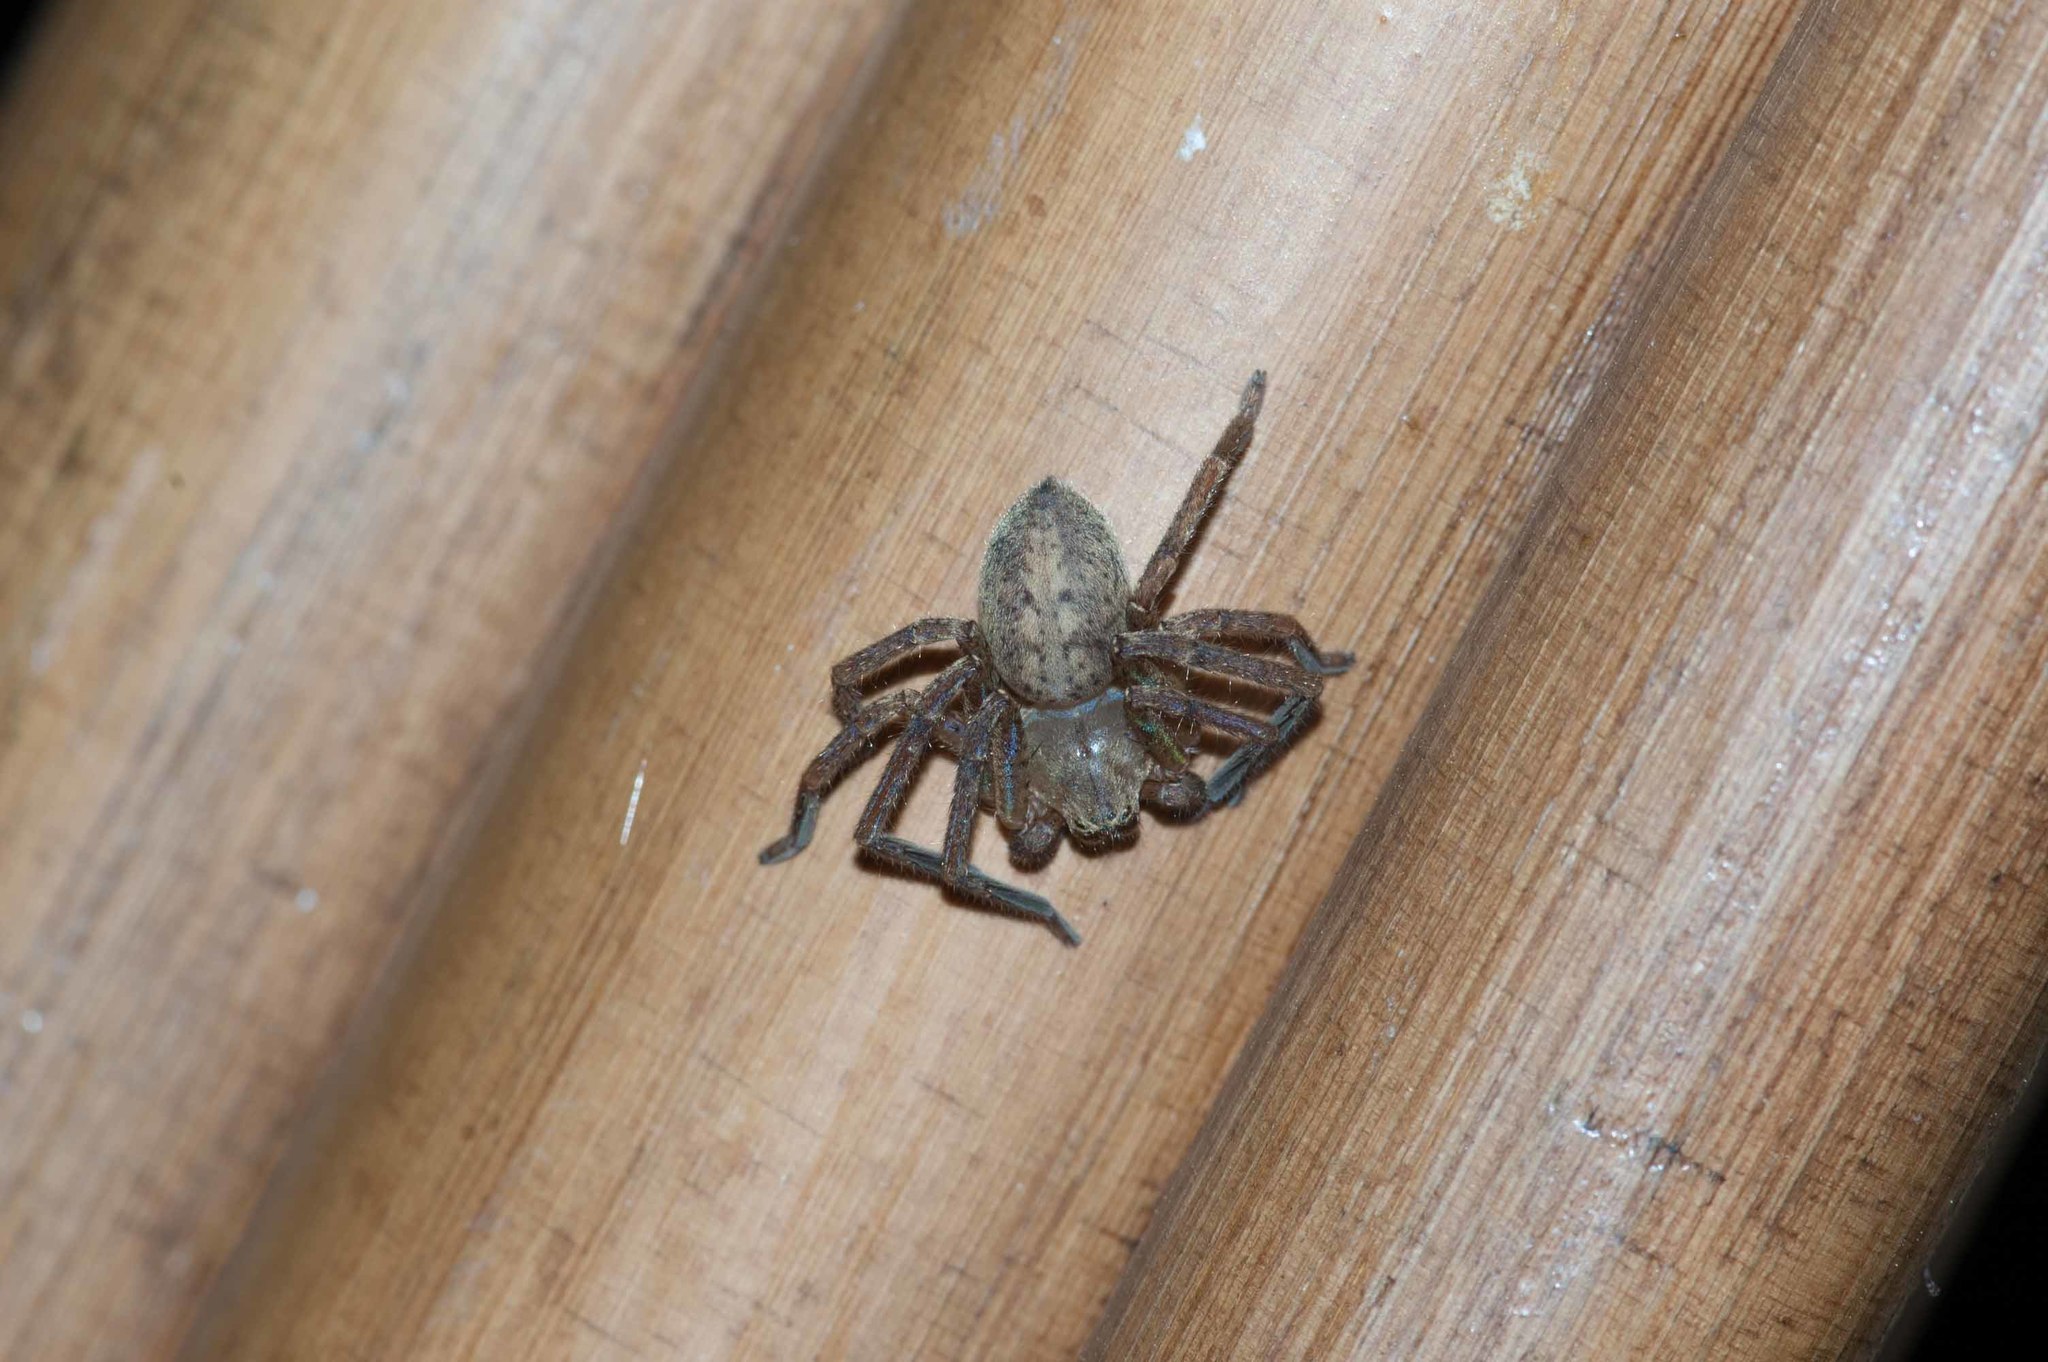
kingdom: Animalia
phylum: Arthropoda
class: Arachnida
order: Araneae
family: Sparassidae
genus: Olios
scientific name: Olios argelasius
